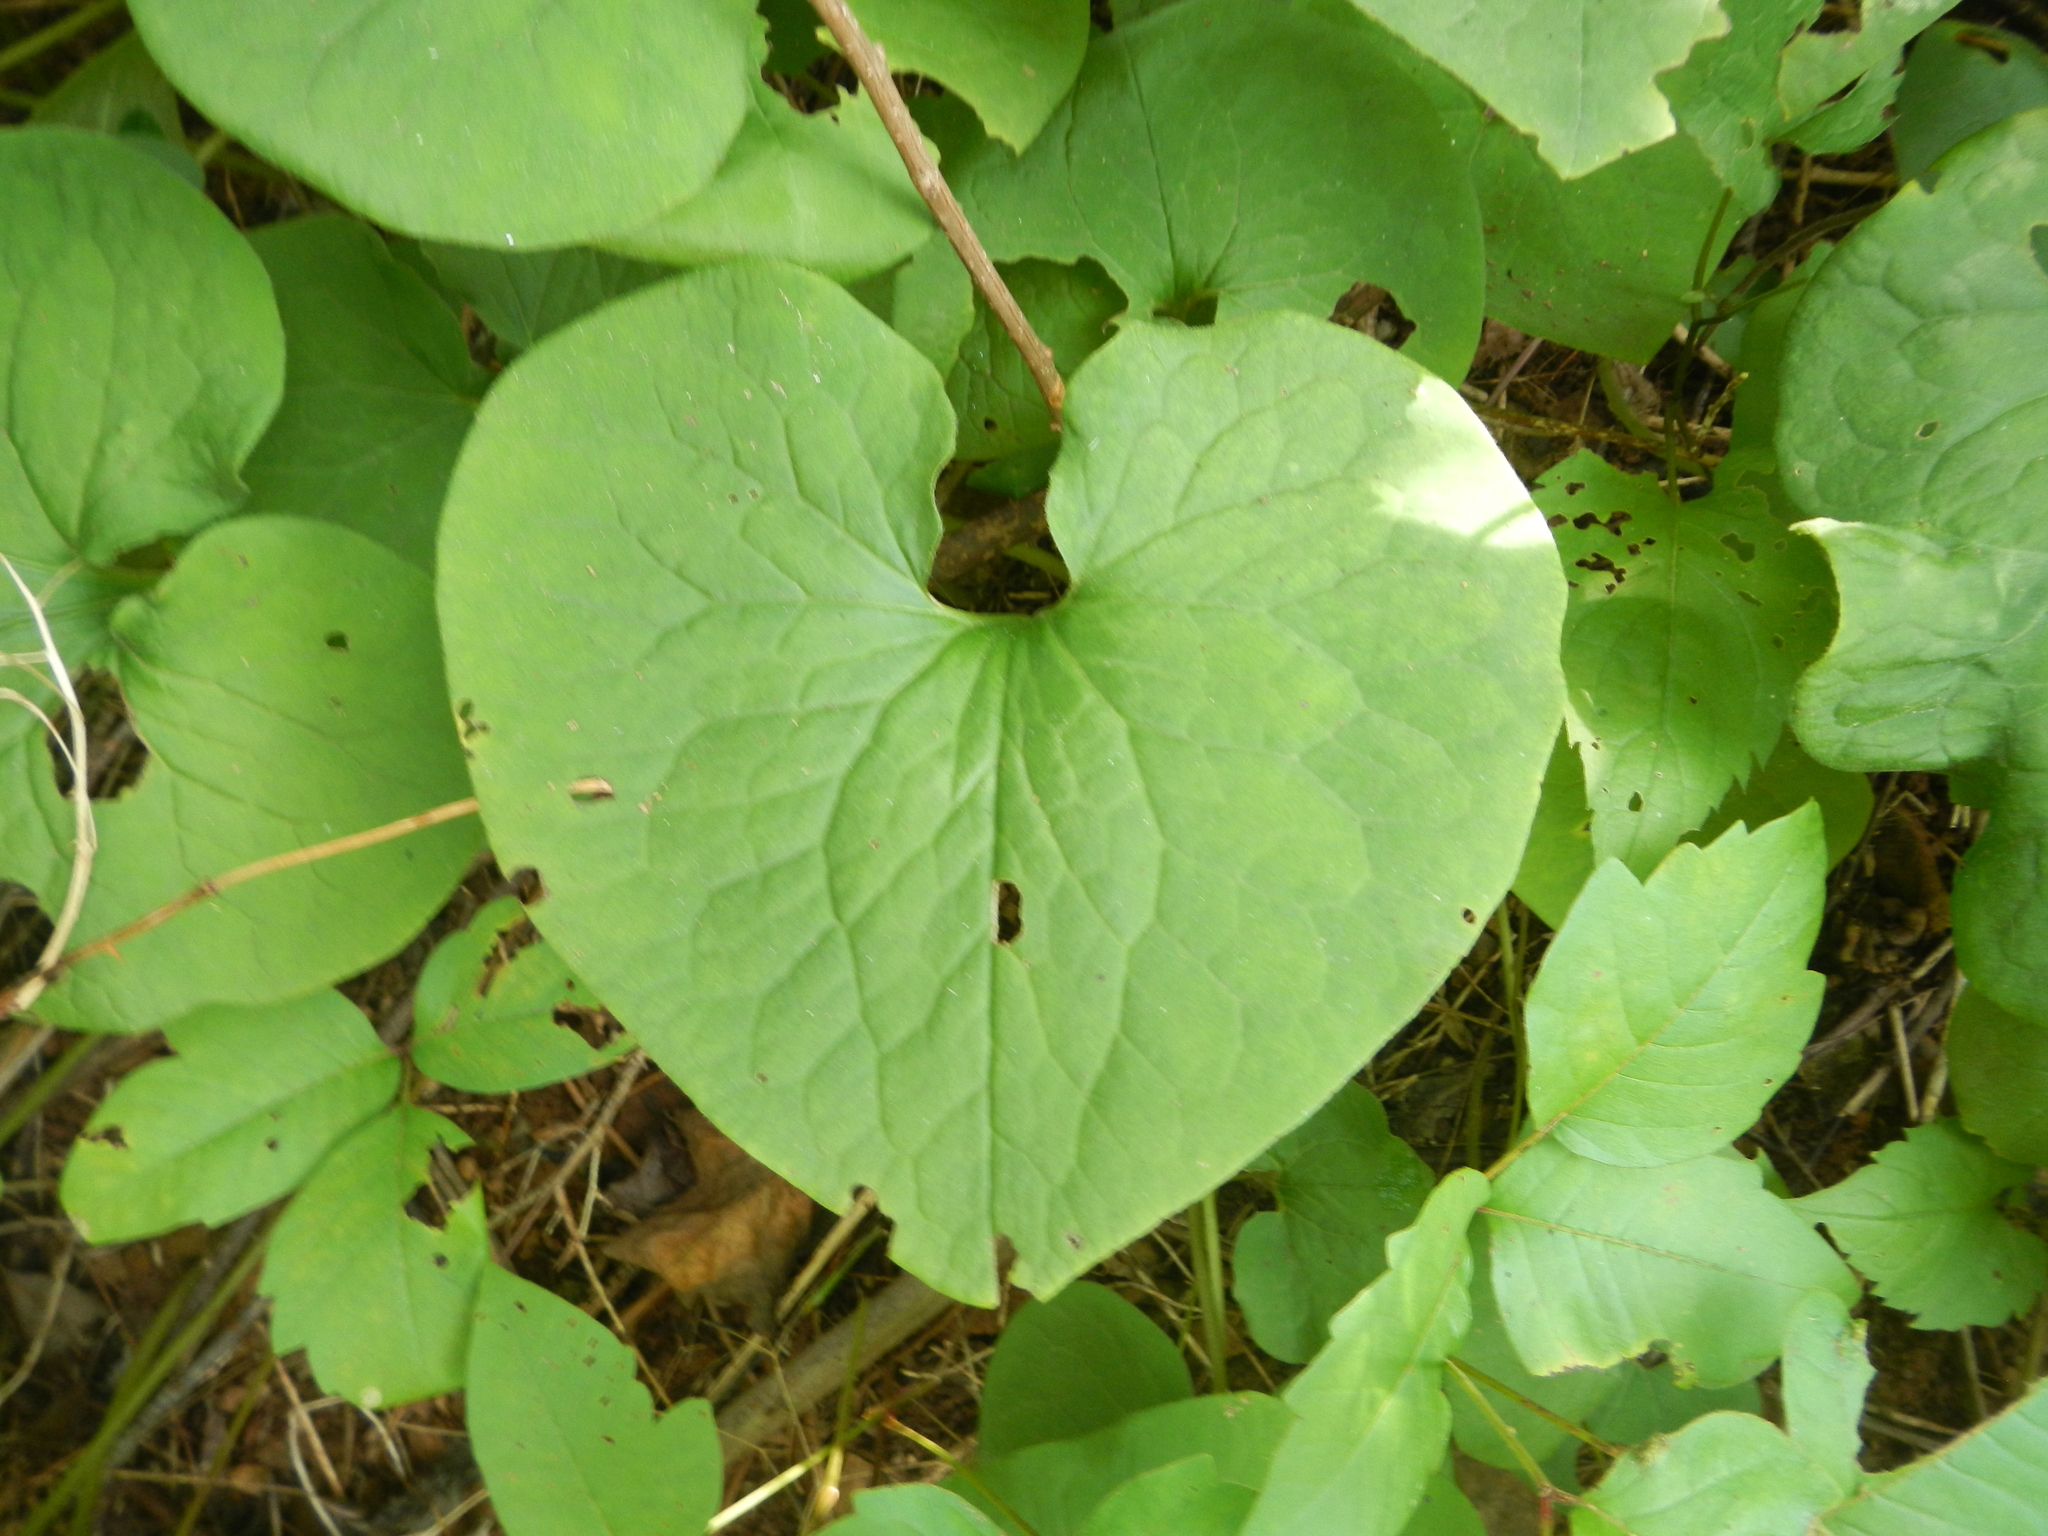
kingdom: Plantae
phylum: Tracheophyta
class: Magnoliopsida
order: Piperales
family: Aristolochiaceae
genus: Asarum
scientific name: Asarum canadense
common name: Wild ginger
